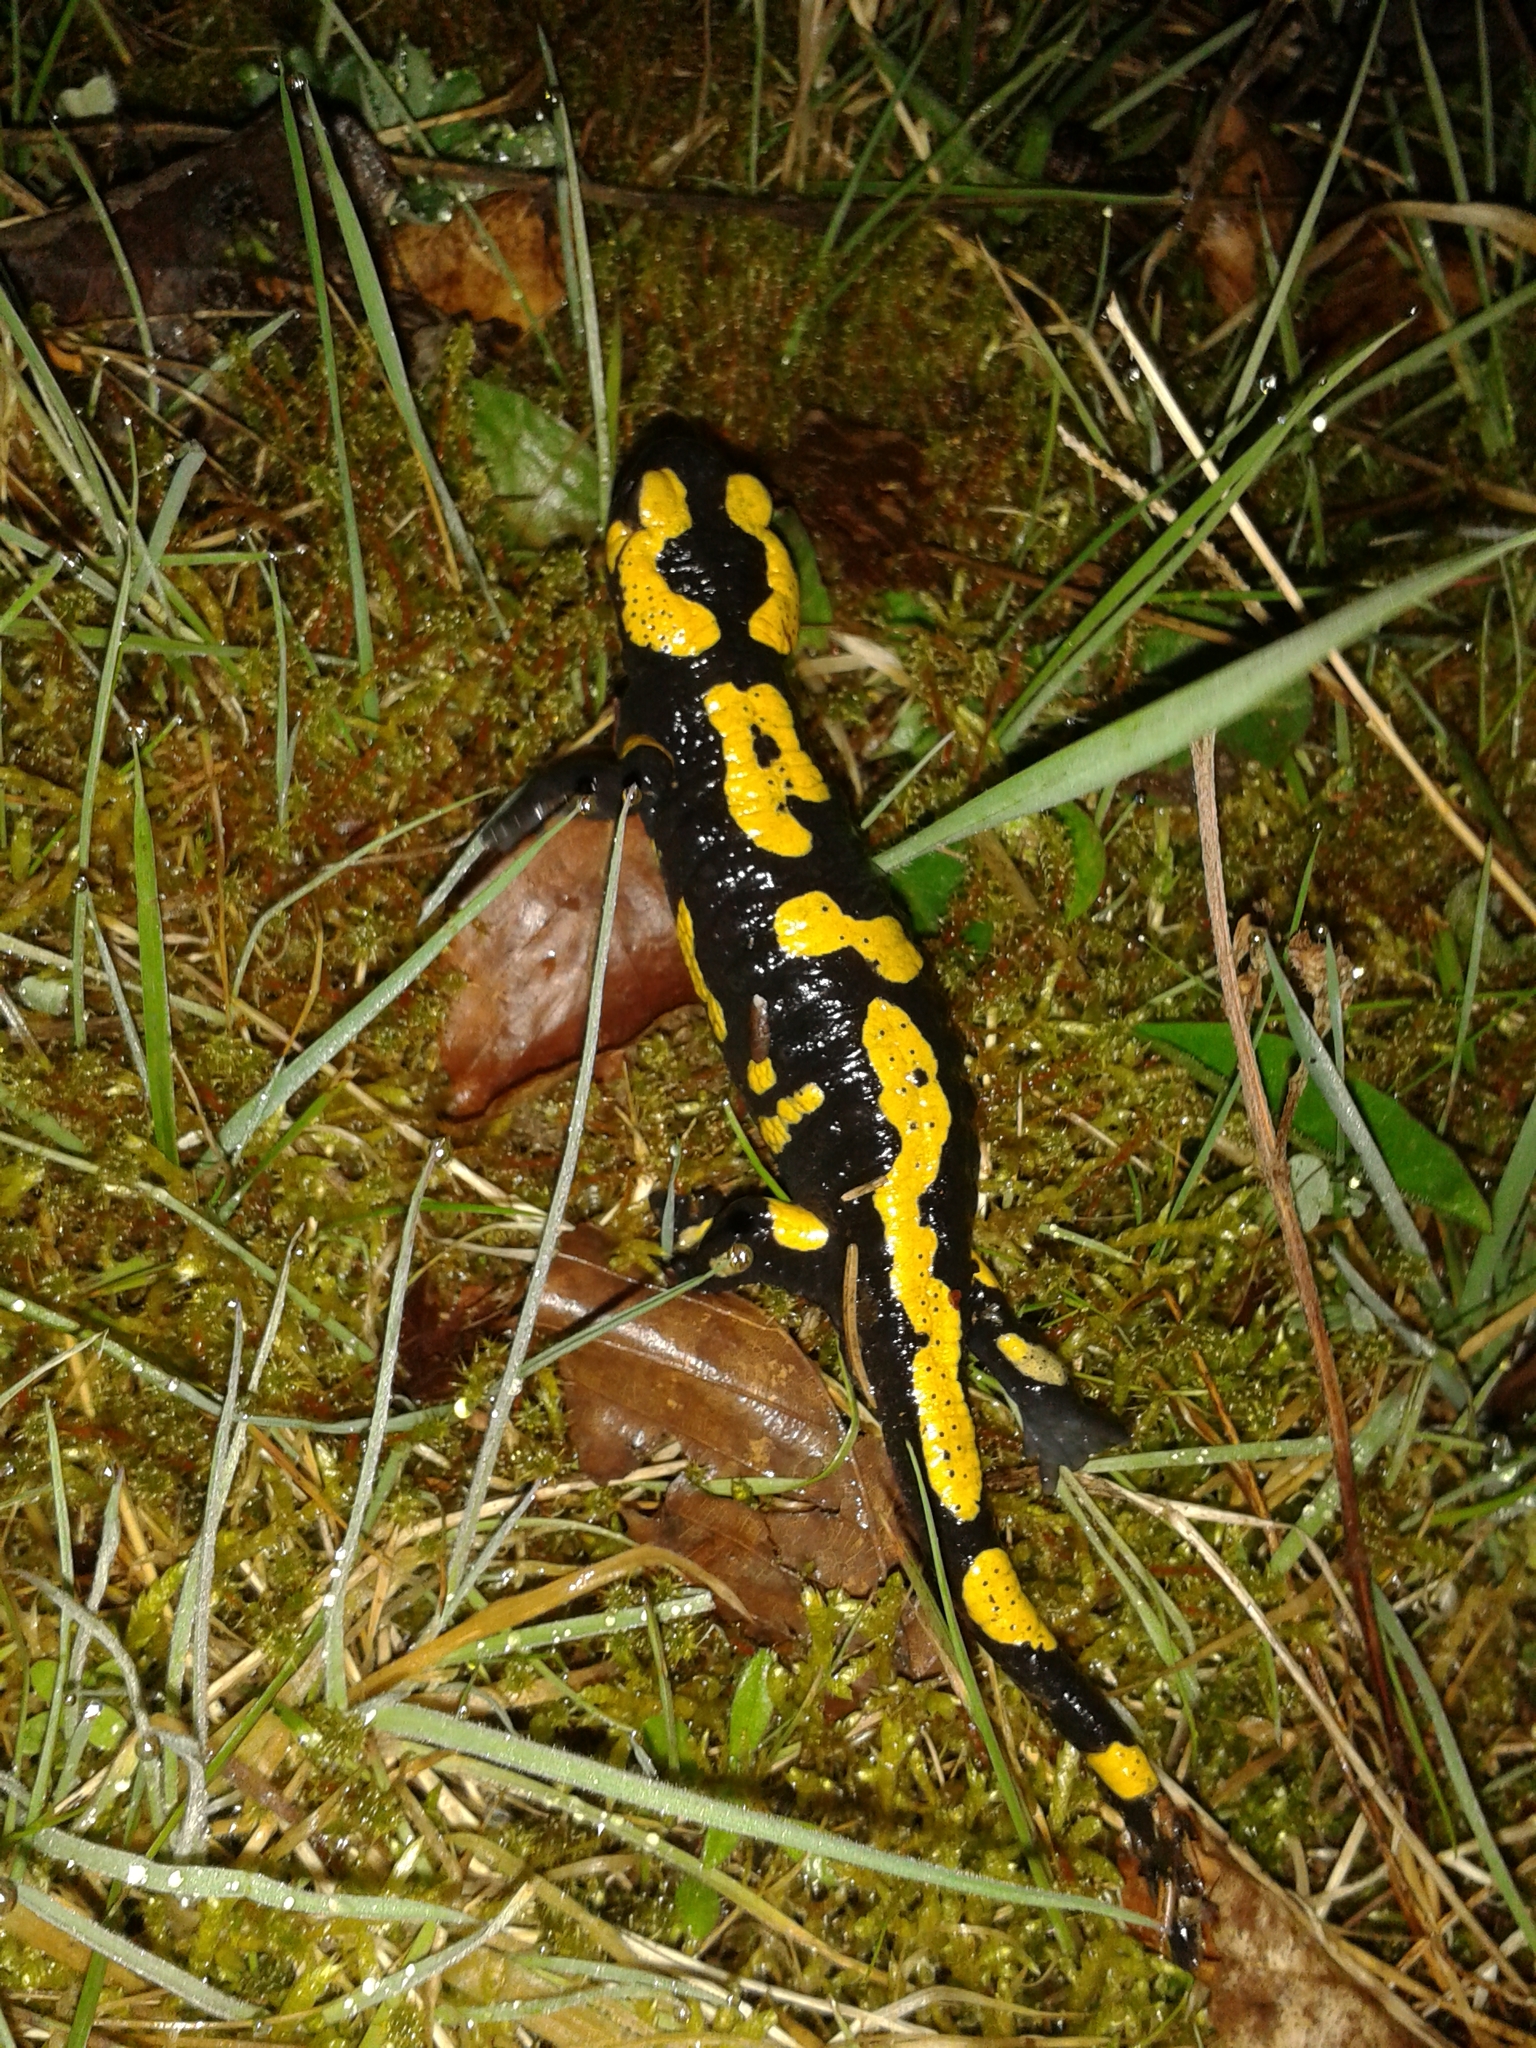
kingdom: Animalia
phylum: Chordata
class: Amphibia
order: Caudata
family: Salamandridae
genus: Salamandra
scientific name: Salamandra salamandra
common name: Fire salamander
